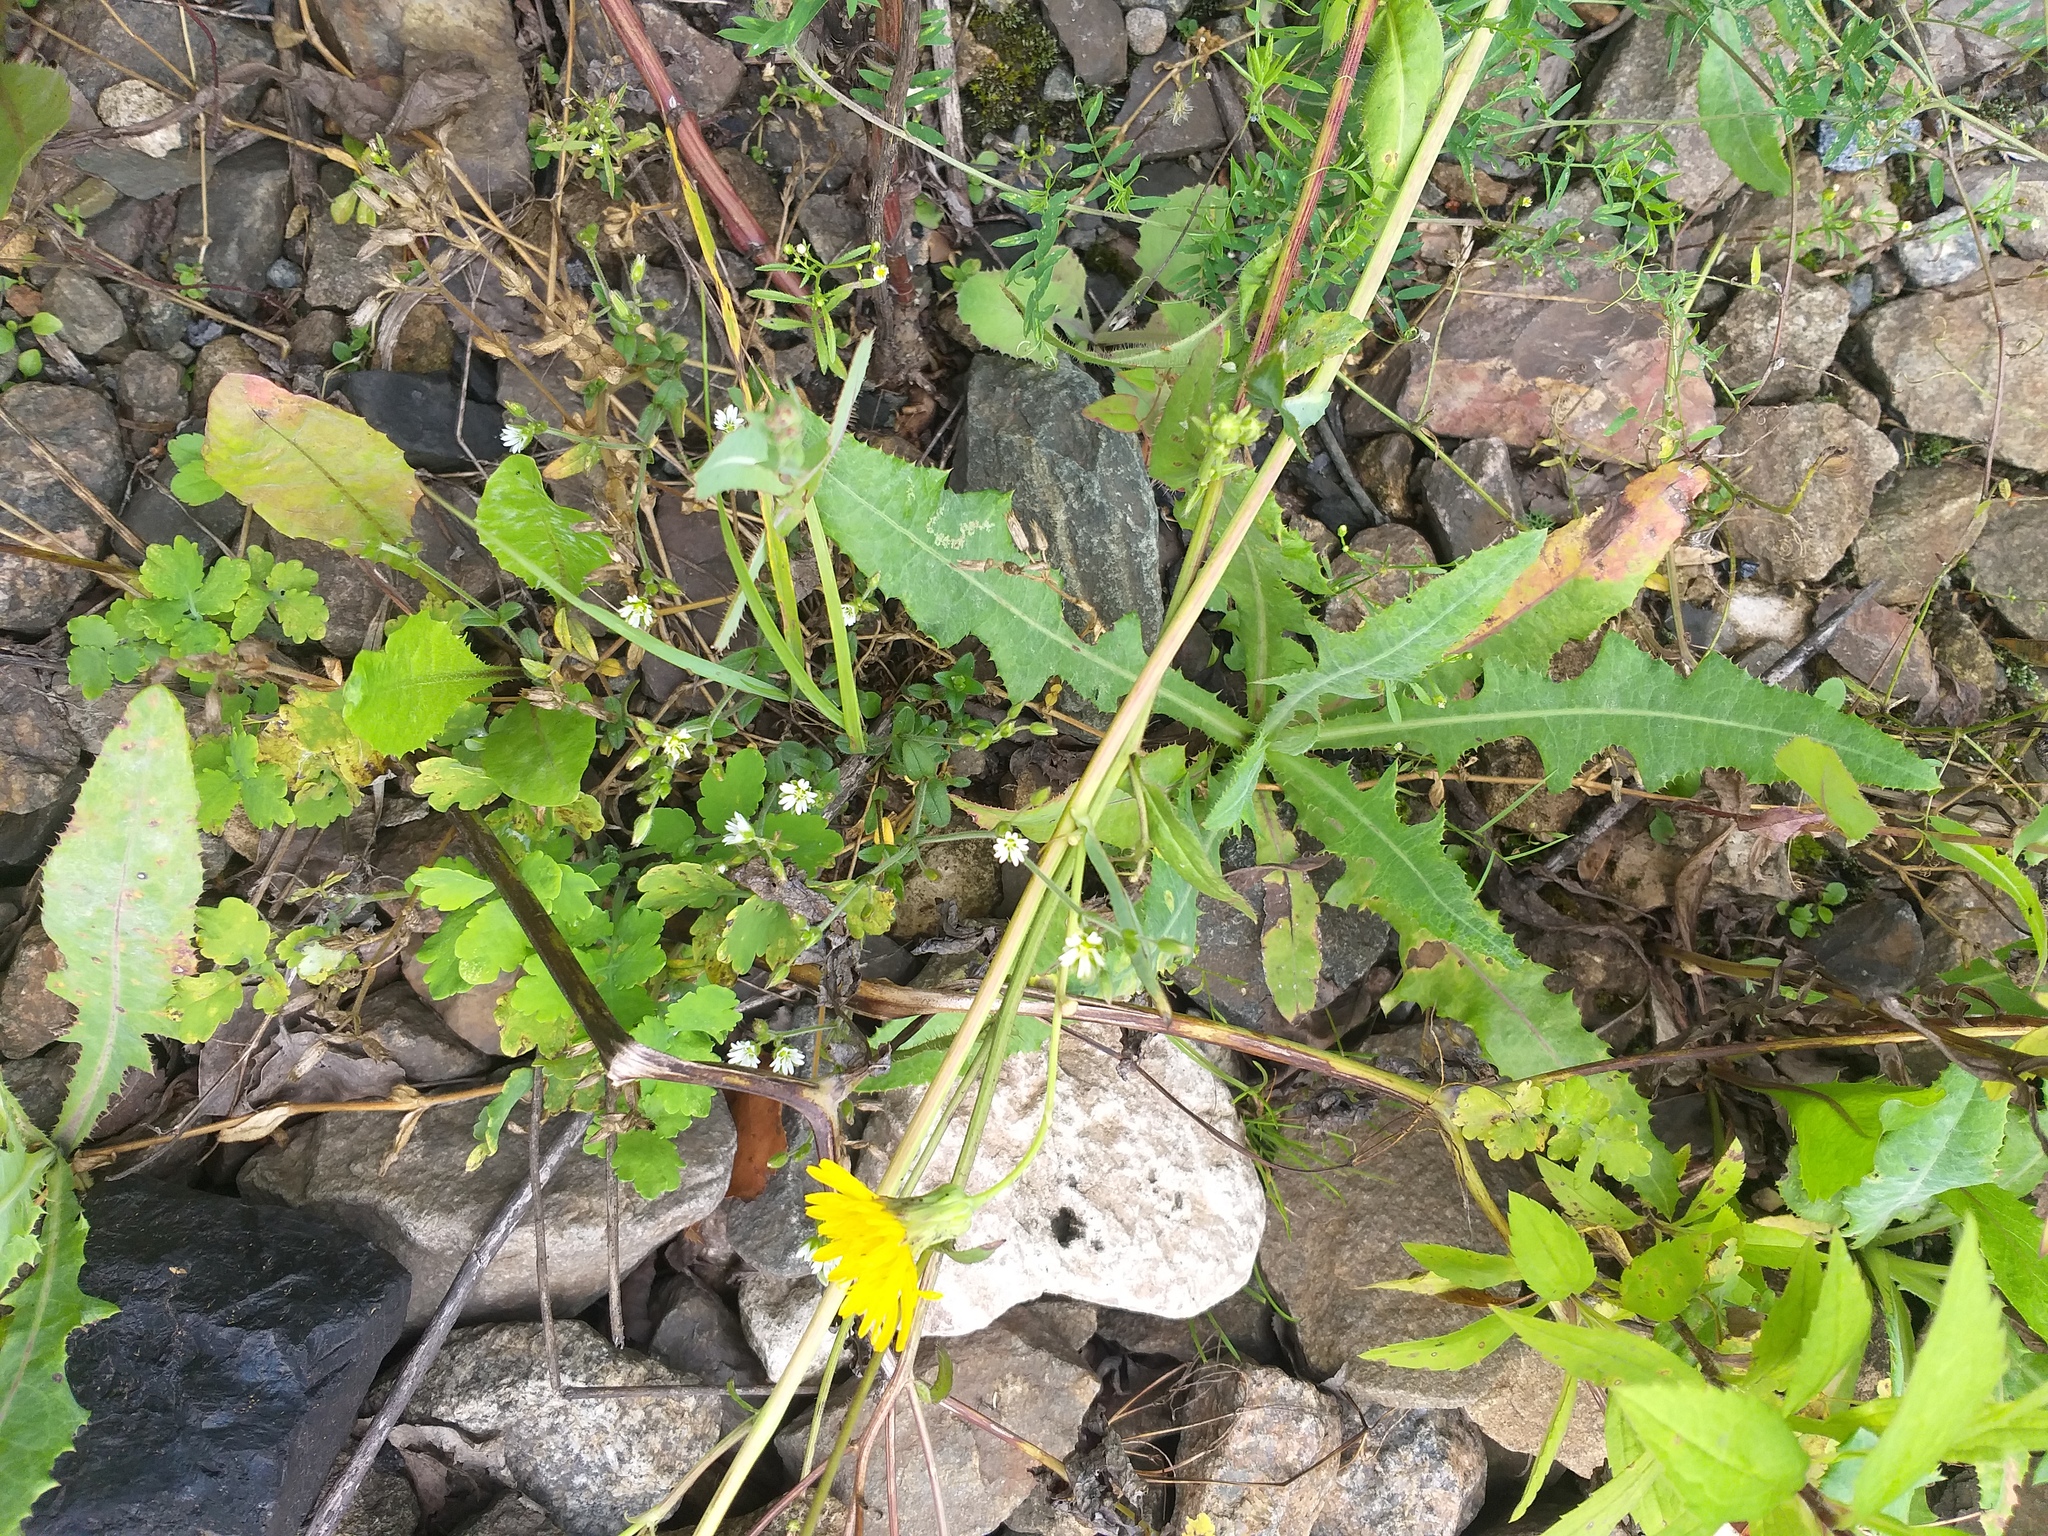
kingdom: Plantae
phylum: Tracheophyta
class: Magnoliopsida
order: Caryophyllales
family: Caryophyllaceae
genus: Cerastium
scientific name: Cerastium holosteoides
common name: Big chickweed
